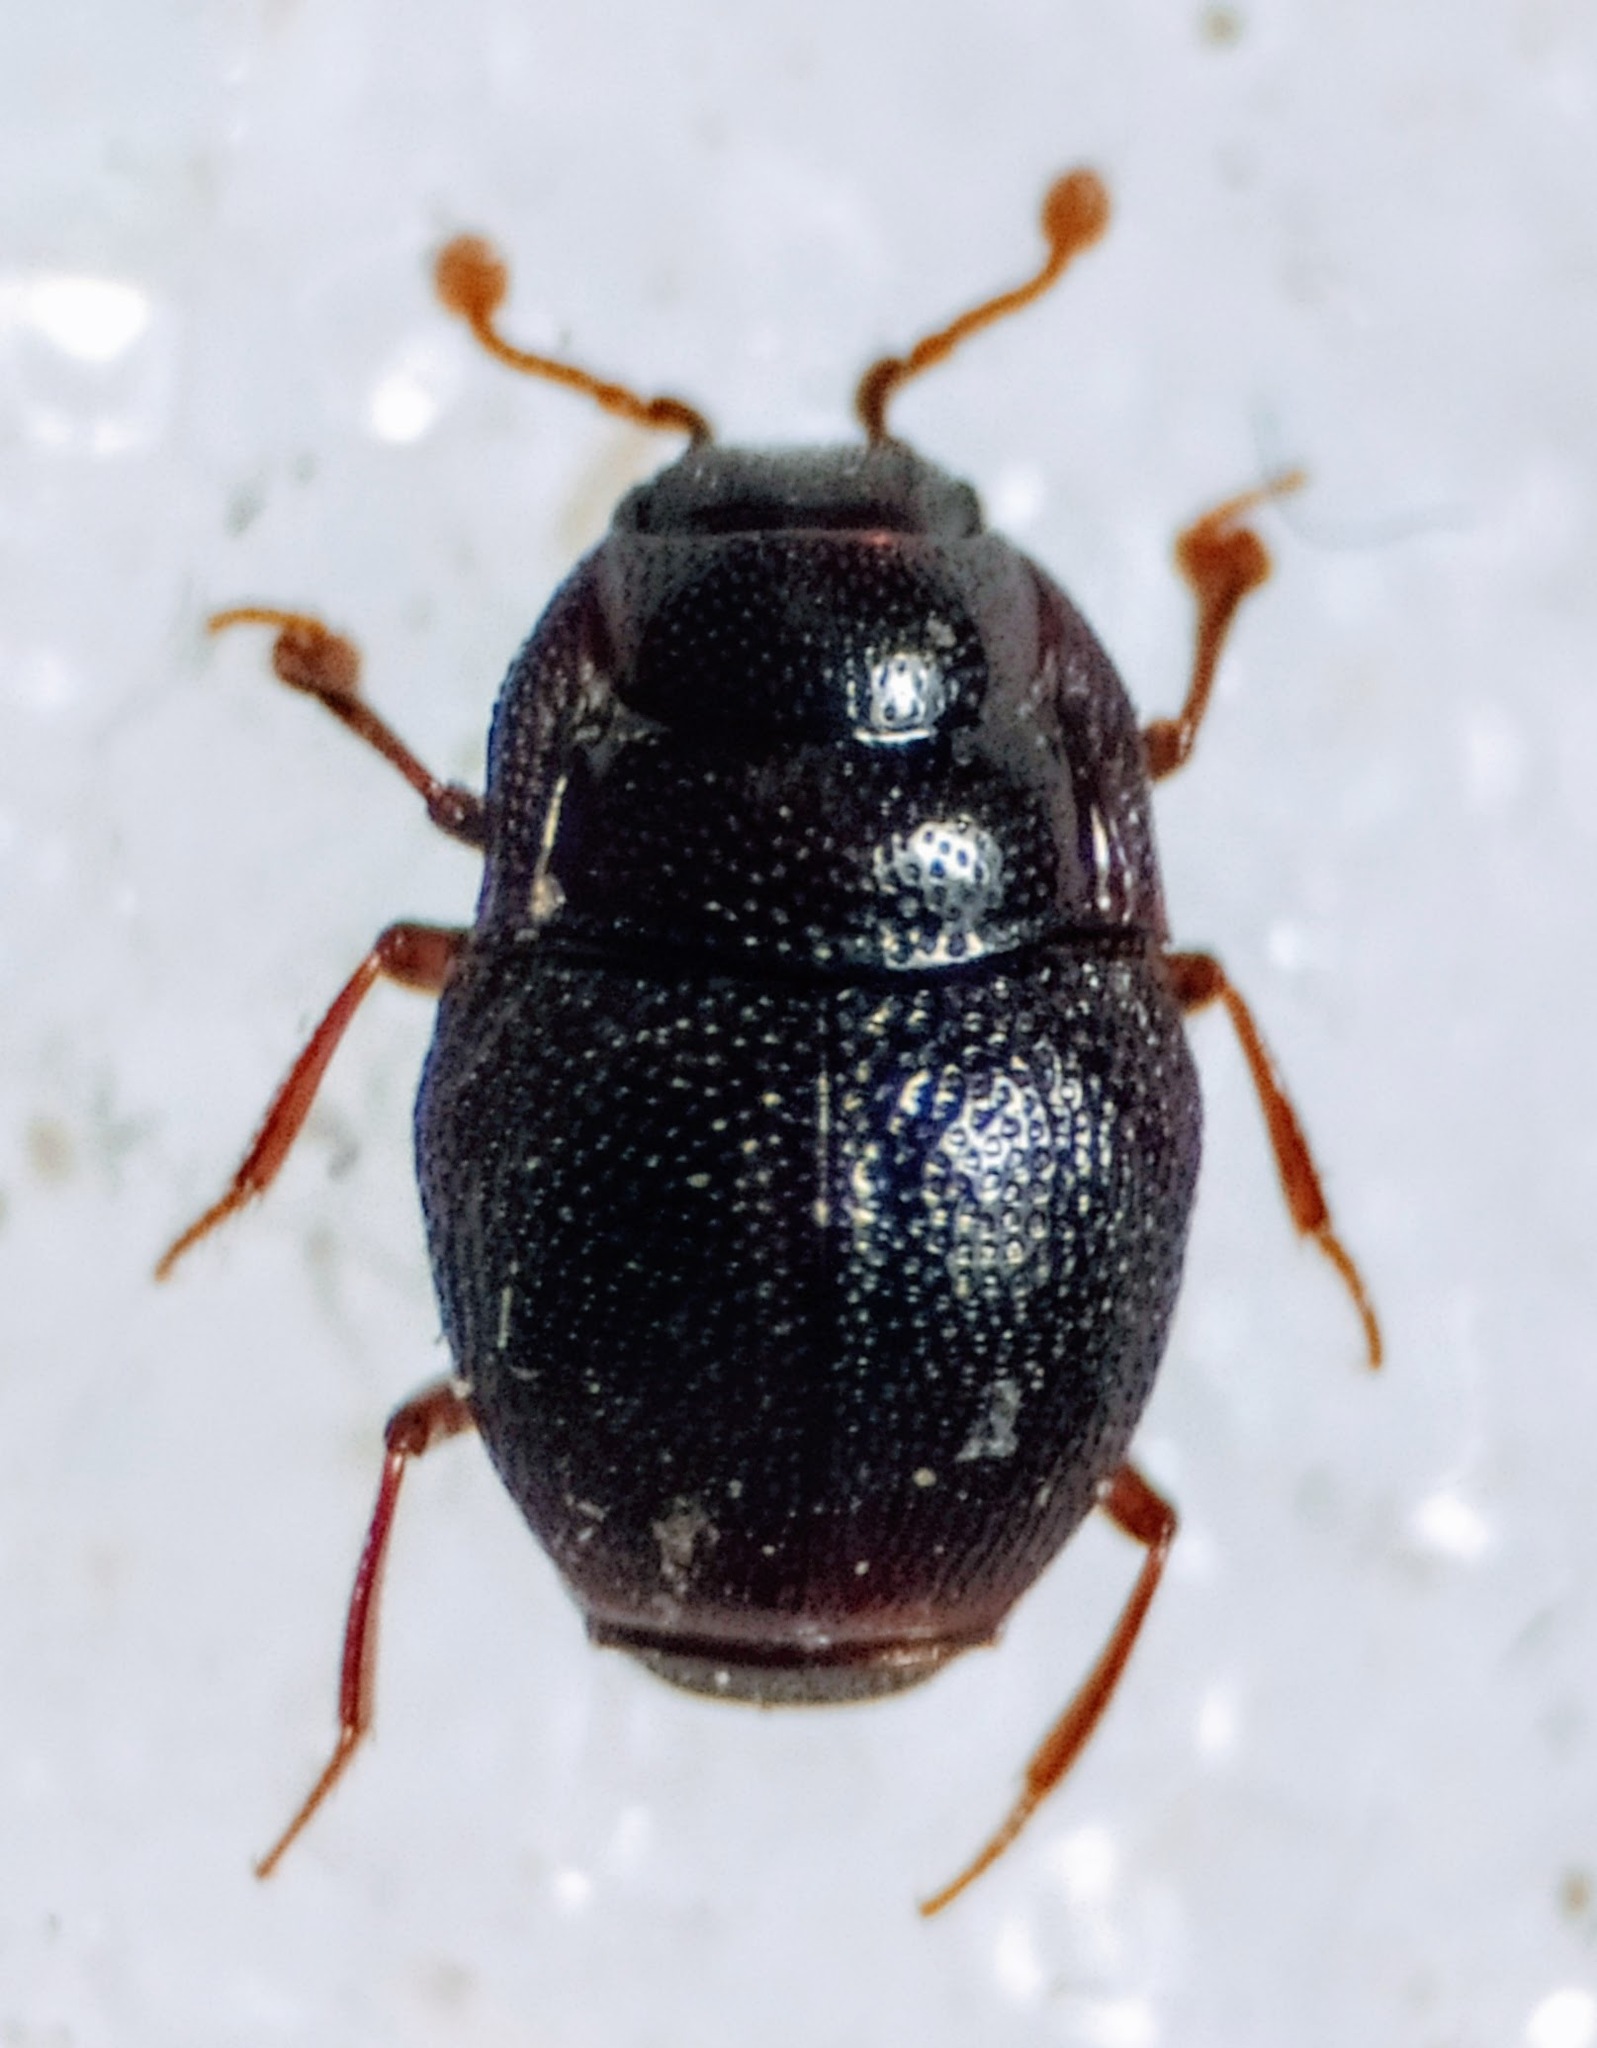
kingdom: Animalia
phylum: Arthropoda
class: Insecta
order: Coleoptera
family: Histeridae
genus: Plegaderus
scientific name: Plegaderus caesus
